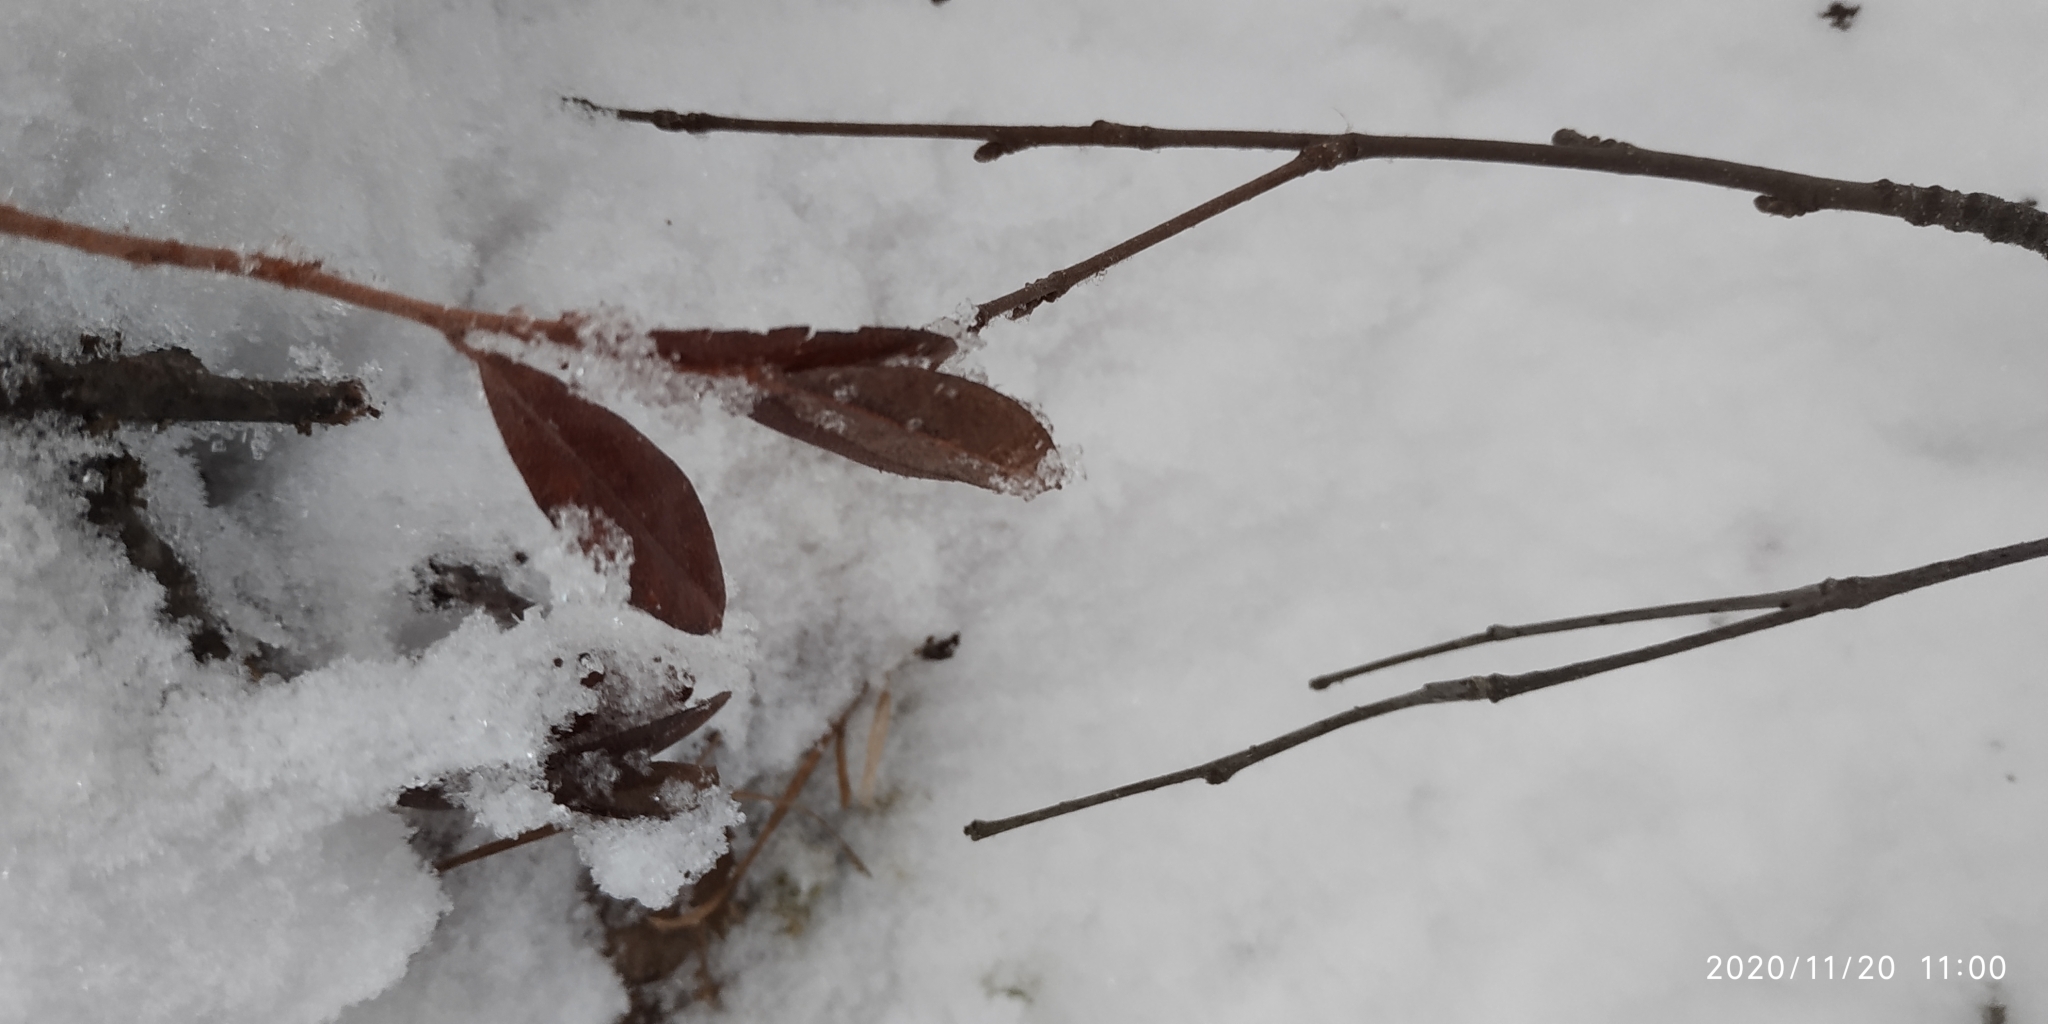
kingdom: Plantae
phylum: Tracheophyta
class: Magnoliopsida
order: Ericales
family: Ericaceae
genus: Chamaedaphne
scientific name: Chamaedaphne calyculata
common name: Leatherleaf
